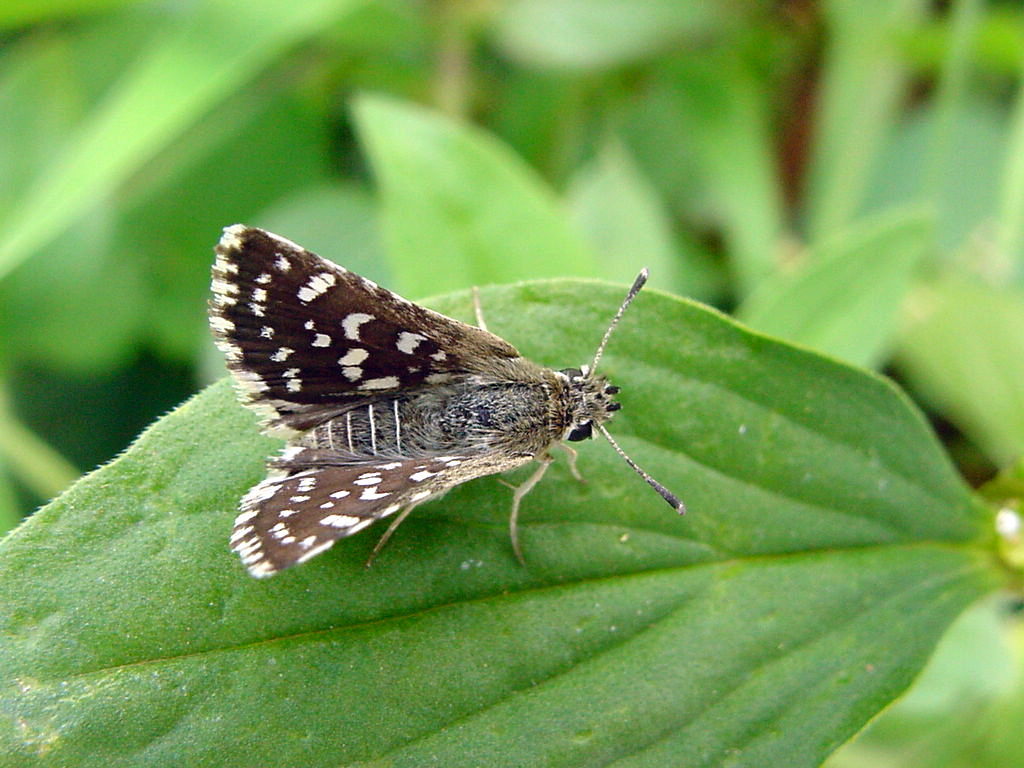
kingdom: Animalia
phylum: Arthropoda
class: Insecta
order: Lepidoptera
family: Hesperiidae
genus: Spialia
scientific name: Spialia galba
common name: Indian skipper
